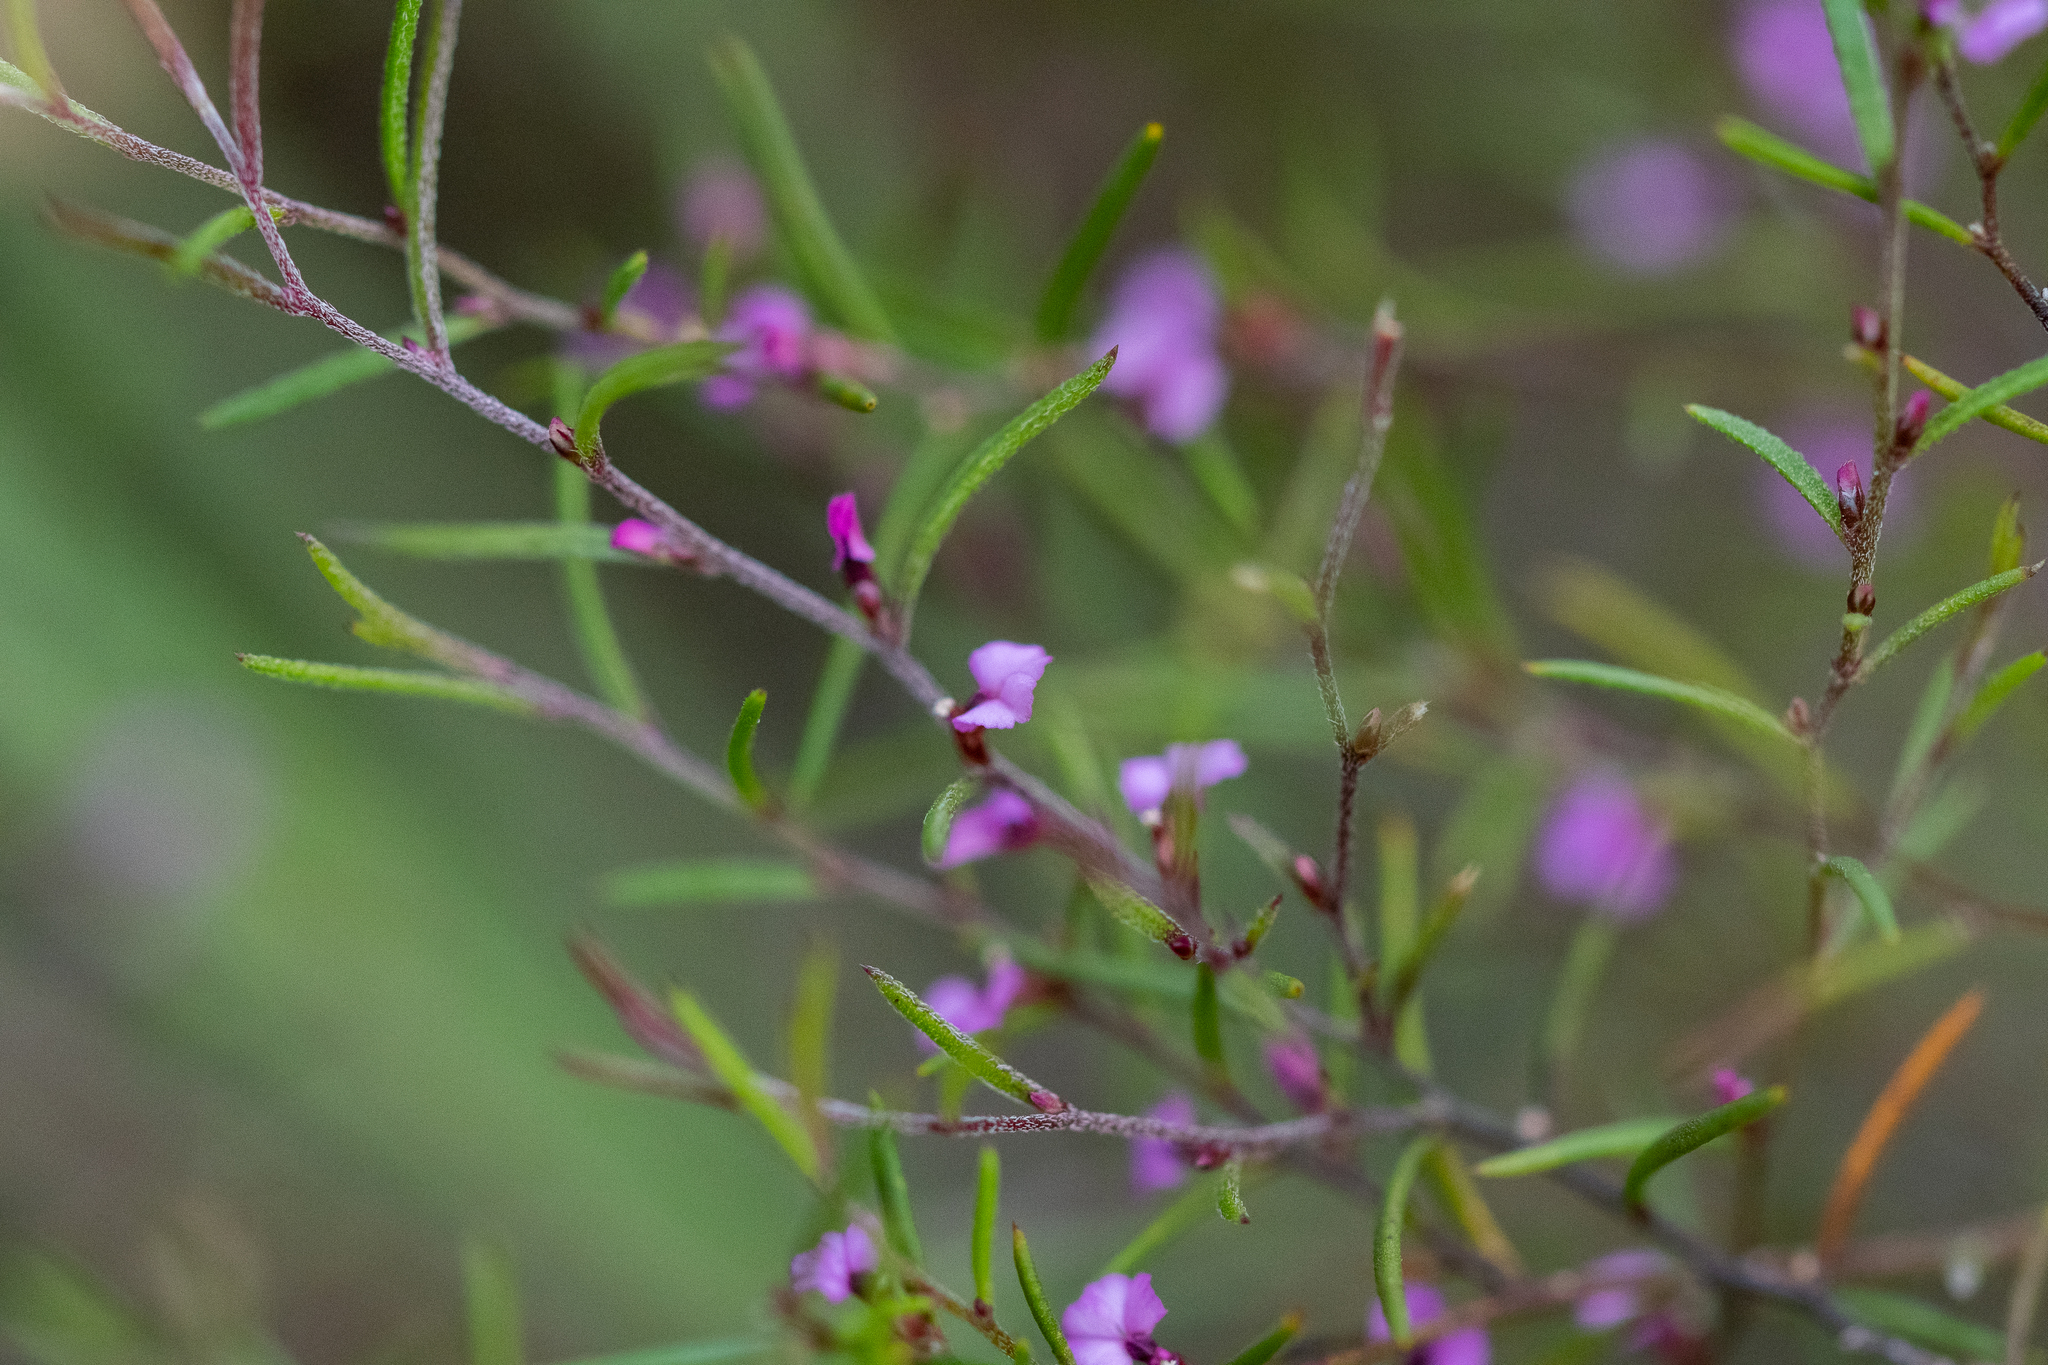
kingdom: Plantae
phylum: Tracheophyta
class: Magnoliopsida
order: Fabales
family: Polygalaceae
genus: Muraltia
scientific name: Muraltia minuta
